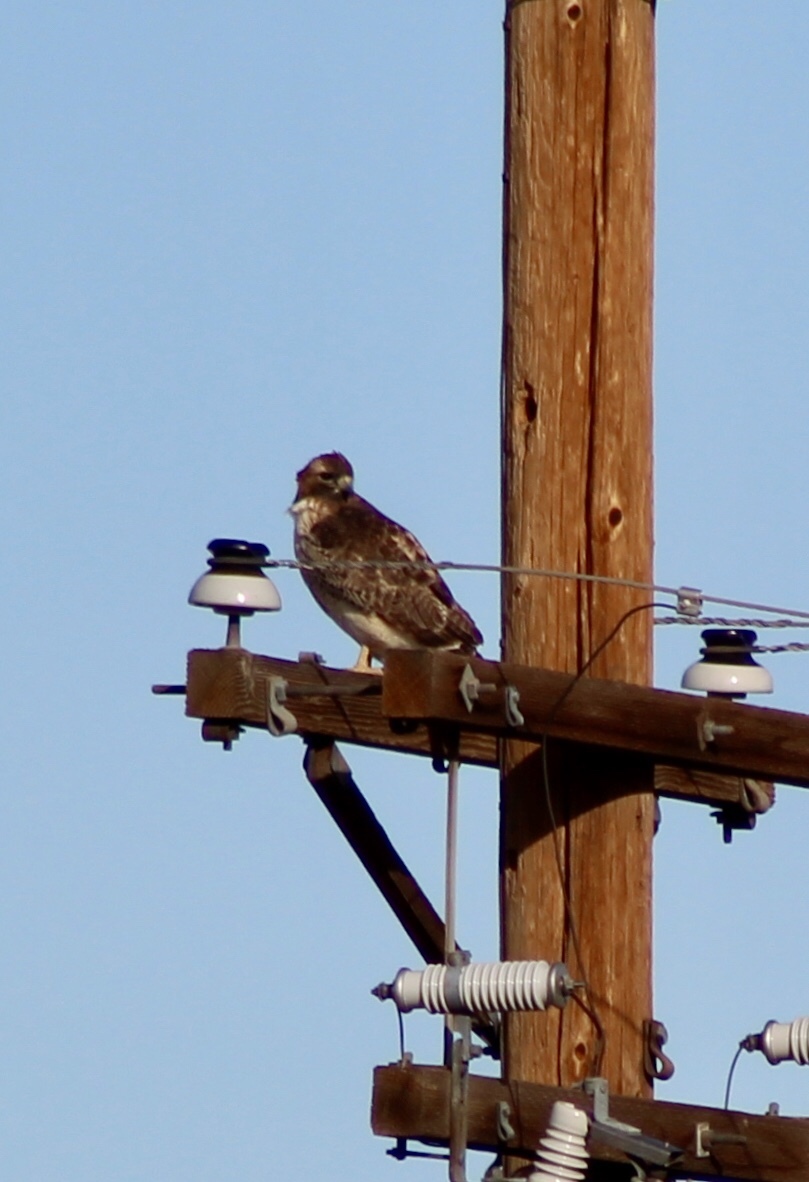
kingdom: Animalia
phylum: Chordata
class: Aves
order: Accipitriformes
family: Accipitridae
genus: Buteo
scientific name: Buteo jamaicensis
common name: Red-tailed hawk
